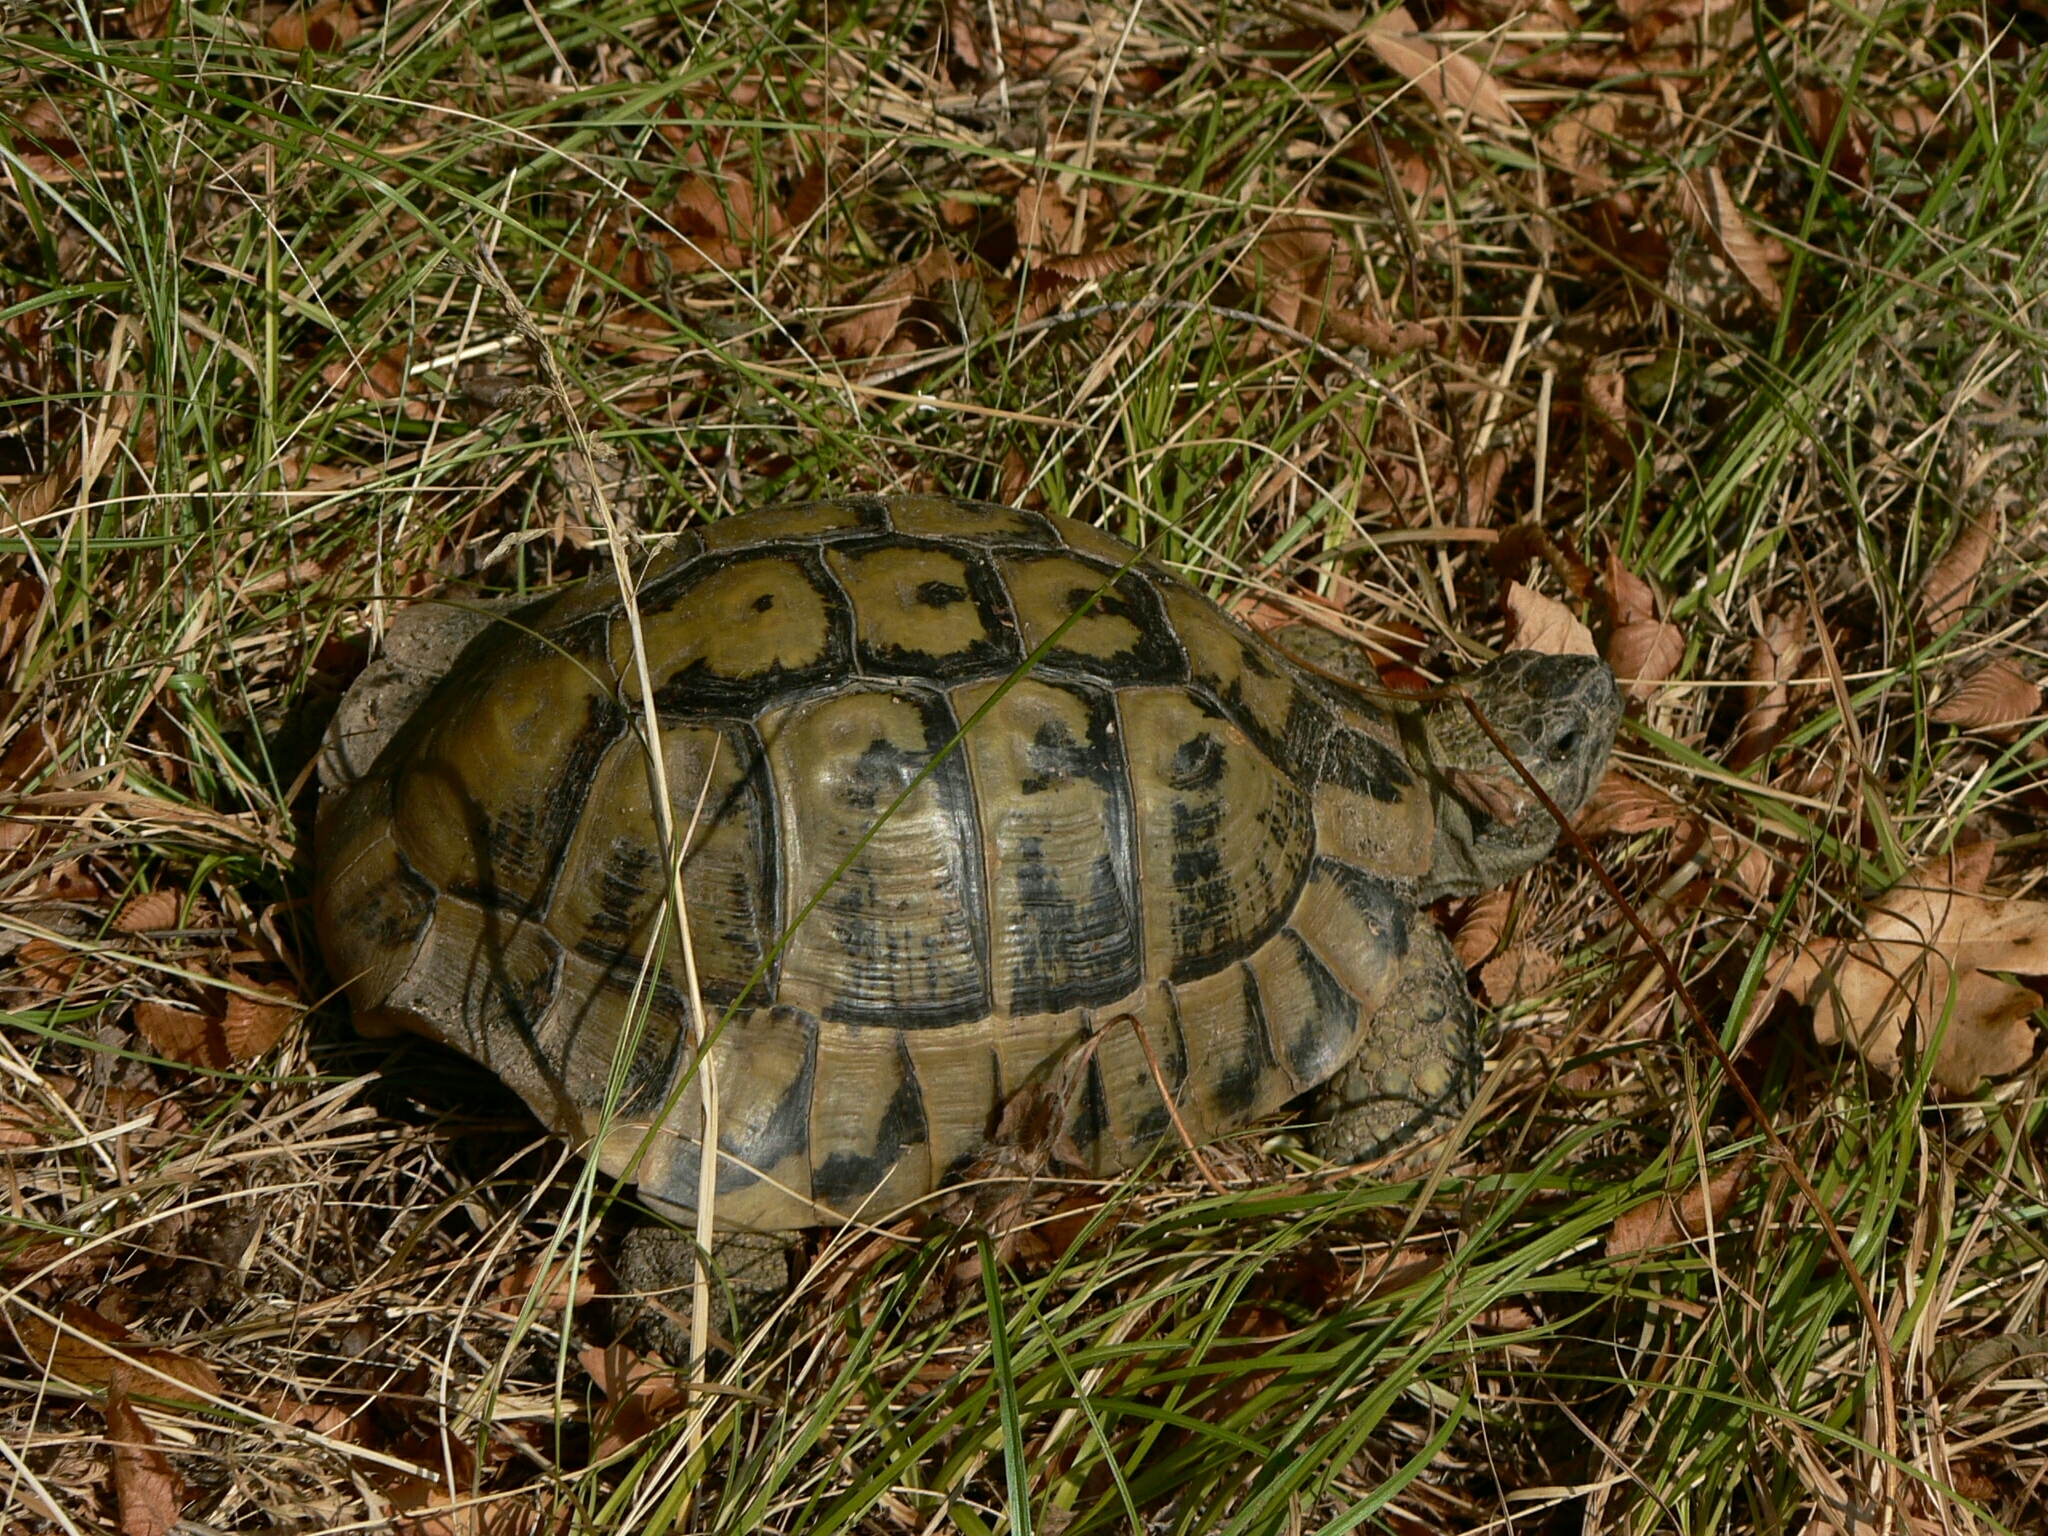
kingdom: Animalia
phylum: Chordata
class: Testudines
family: Testudinidae
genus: Testudo
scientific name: Testudo hermanni
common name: Hermann's tortoise
